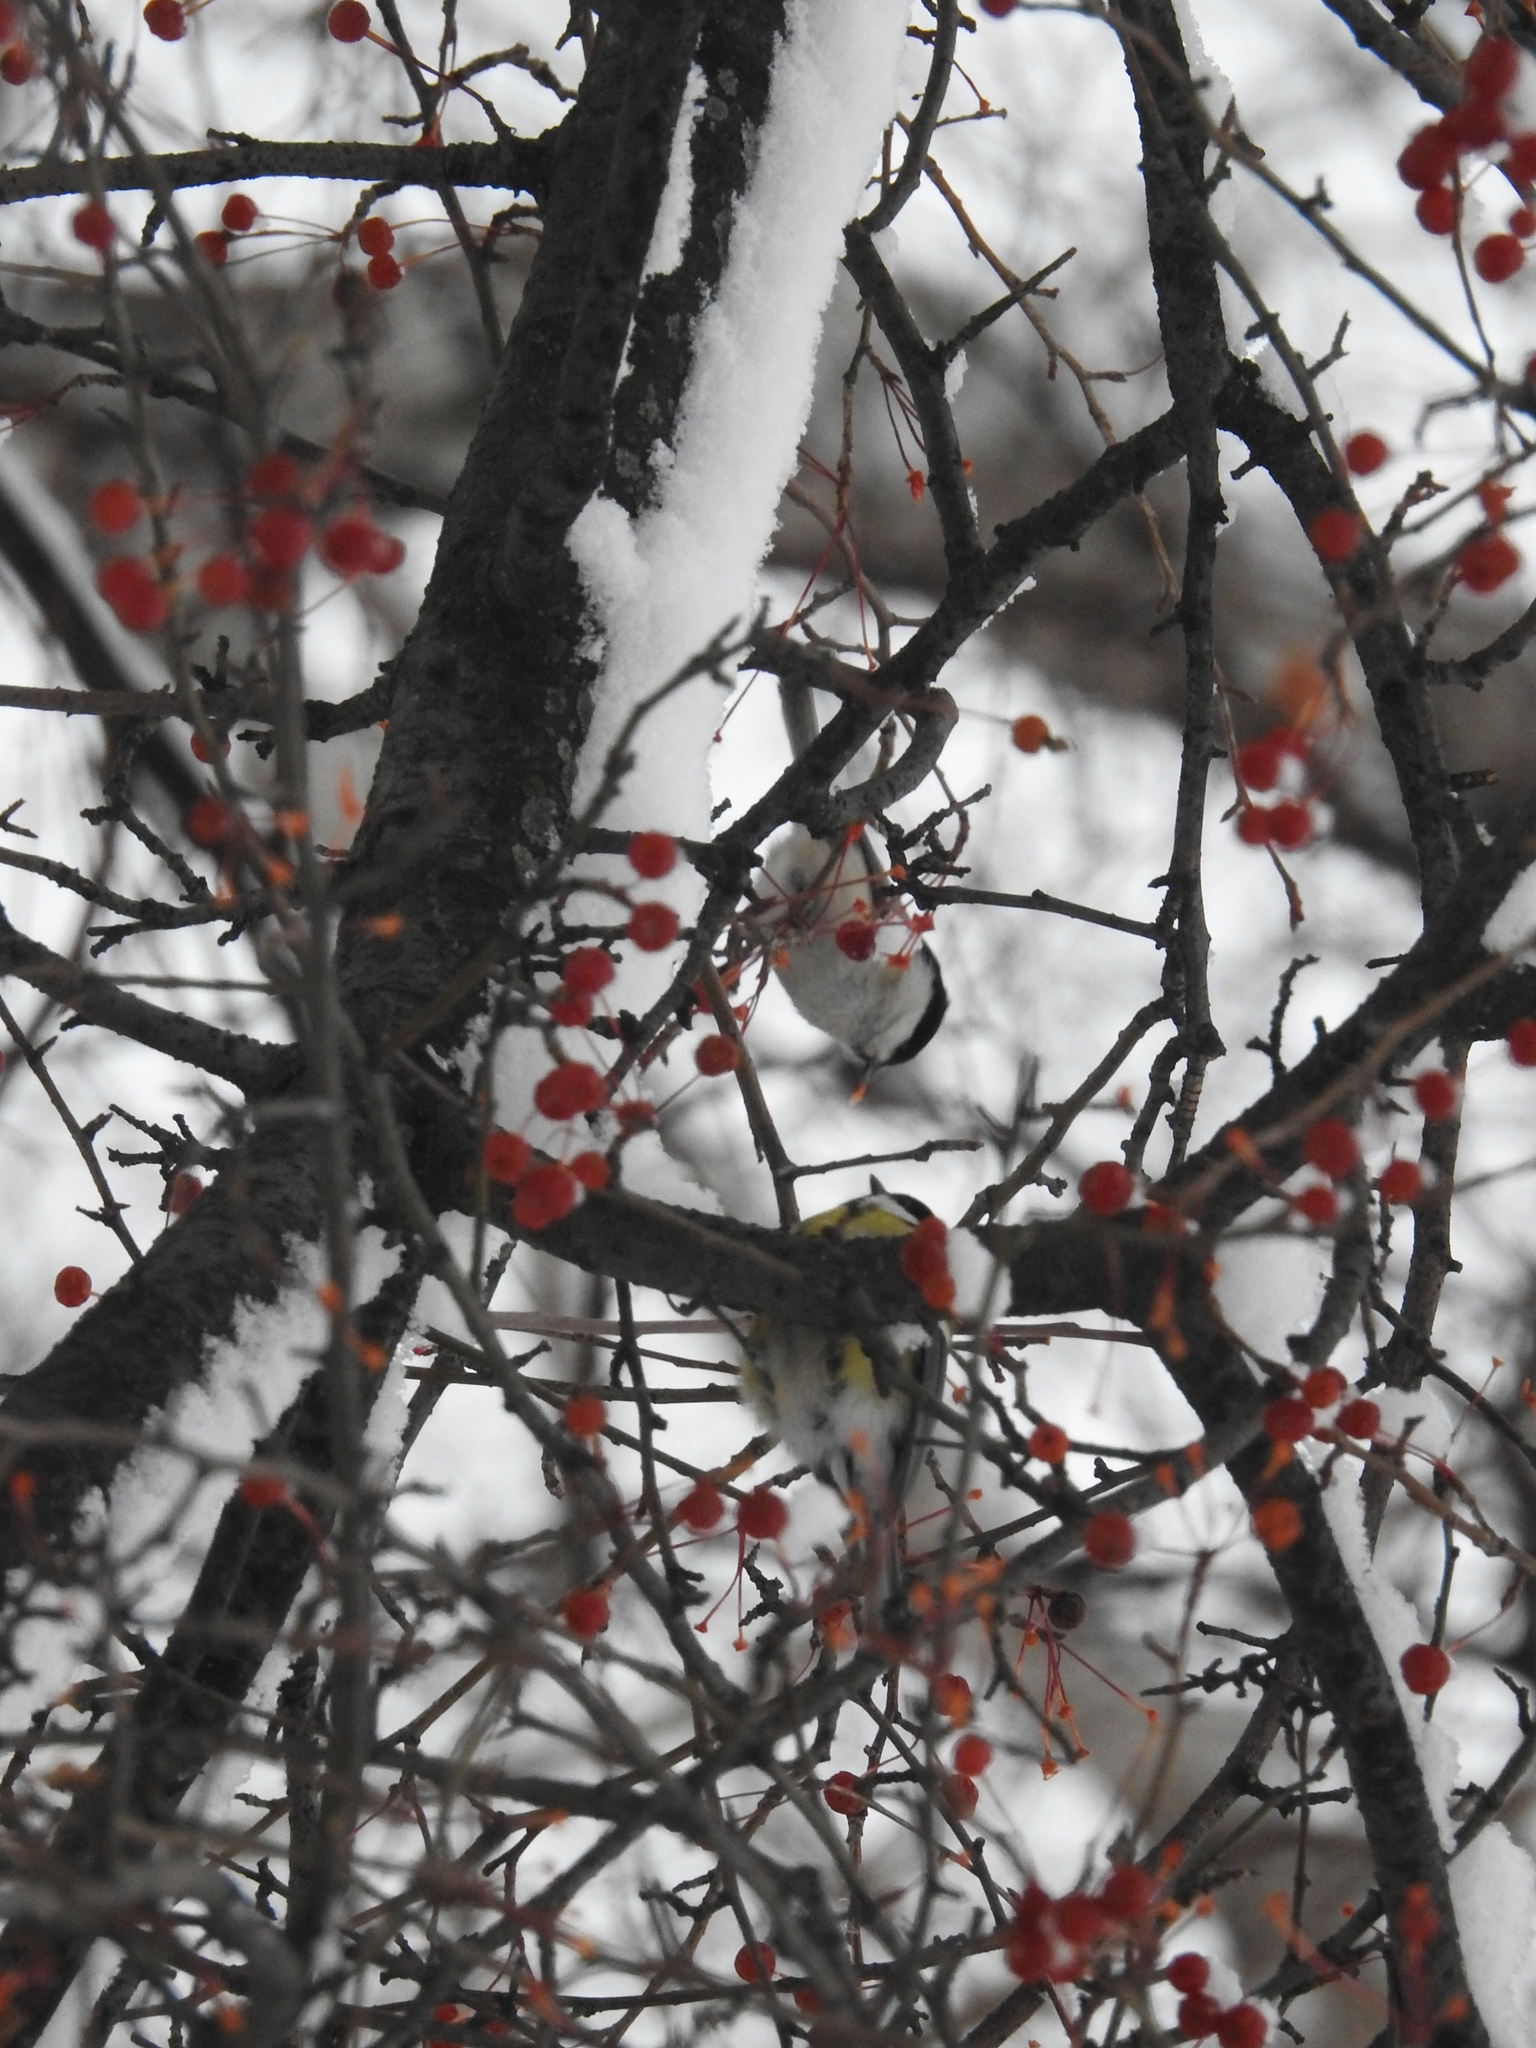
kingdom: Animalia
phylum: Chordata
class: Aves
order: Passeriformes
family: Paridae
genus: Poecile
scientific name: Poecile montanus
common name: Willow tit
